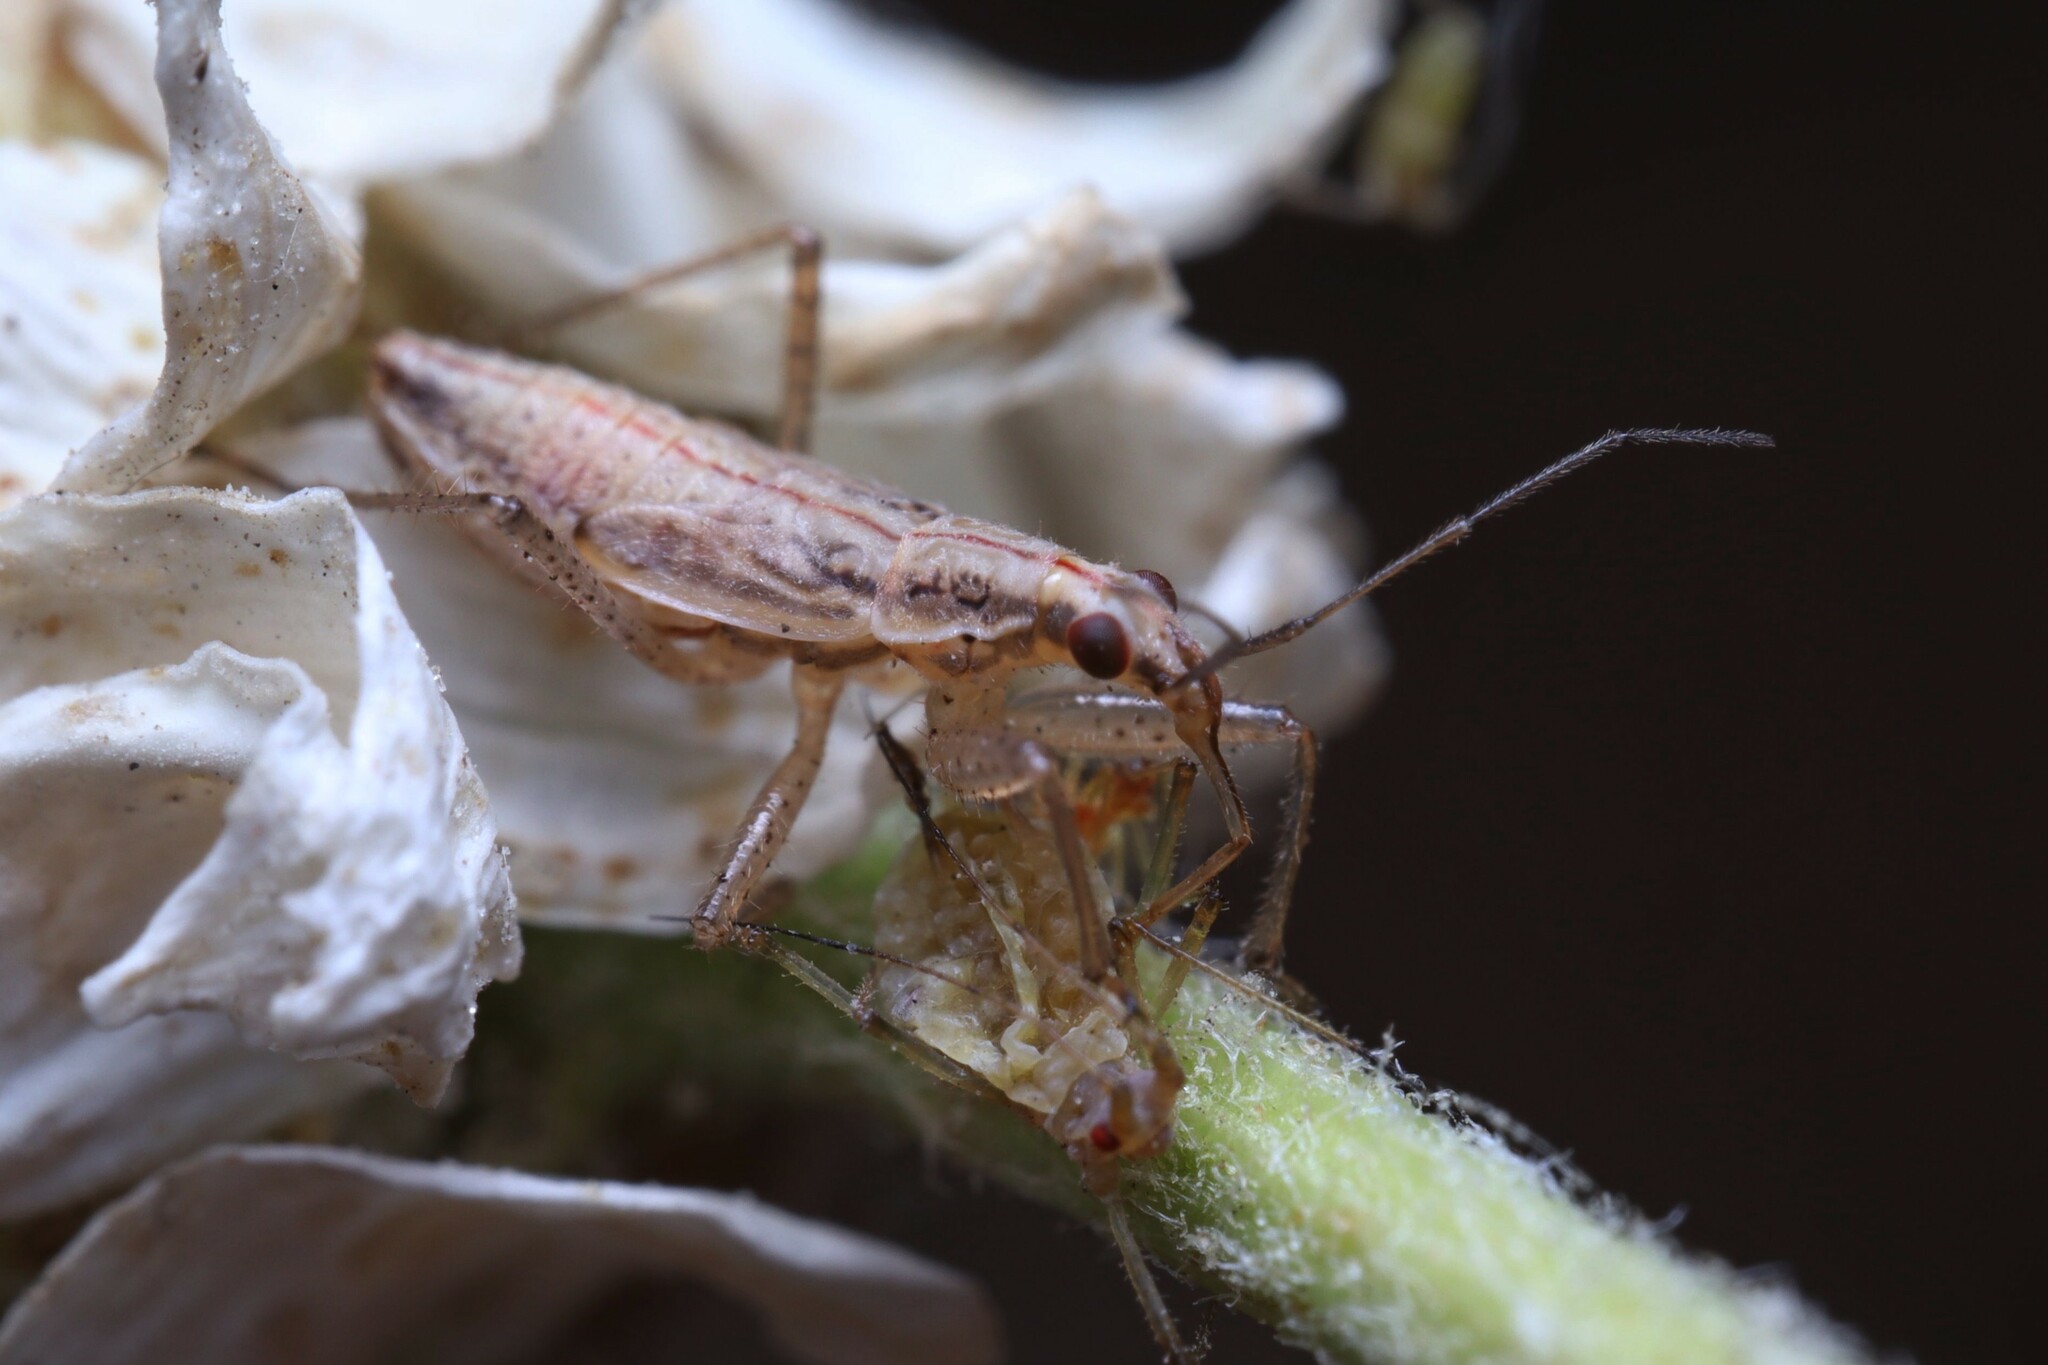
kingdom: Animalia
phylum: Arthropoda
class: Insecta
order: Hemiptera
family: Nabidae
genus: Nabis
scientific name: Nabis punctipennis
